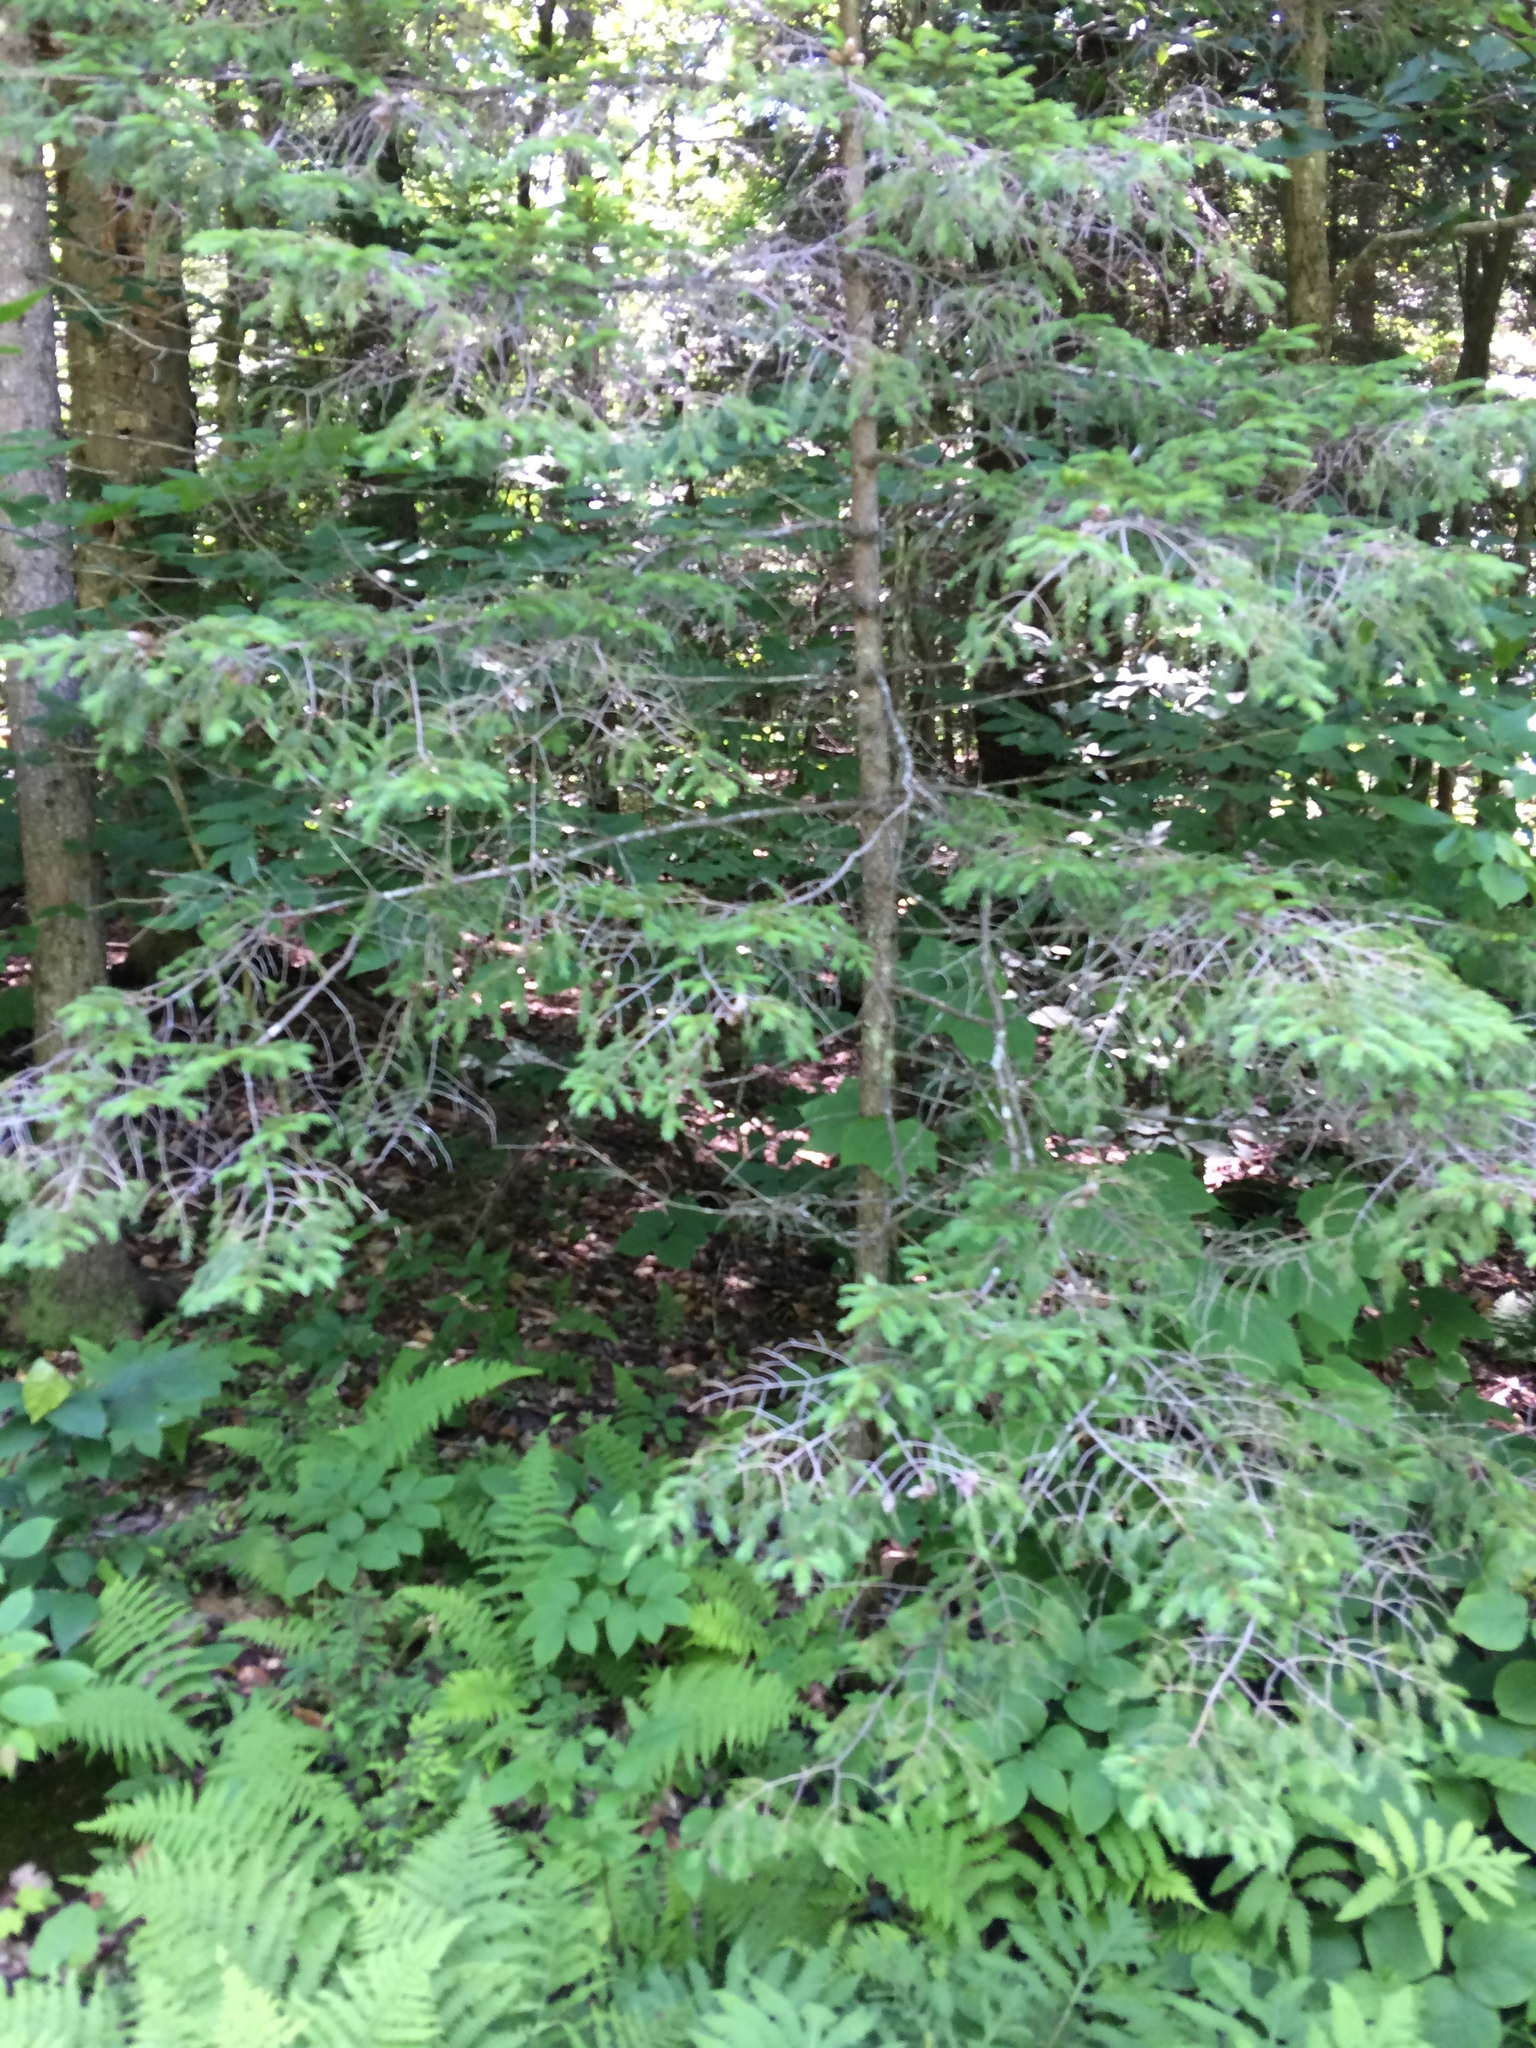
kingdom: Plantae
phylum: Tracheophyta
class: Pinopsida
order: Pinales
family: Pinaceae
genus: Picea
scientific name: Picea rubens
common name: Red spruce
